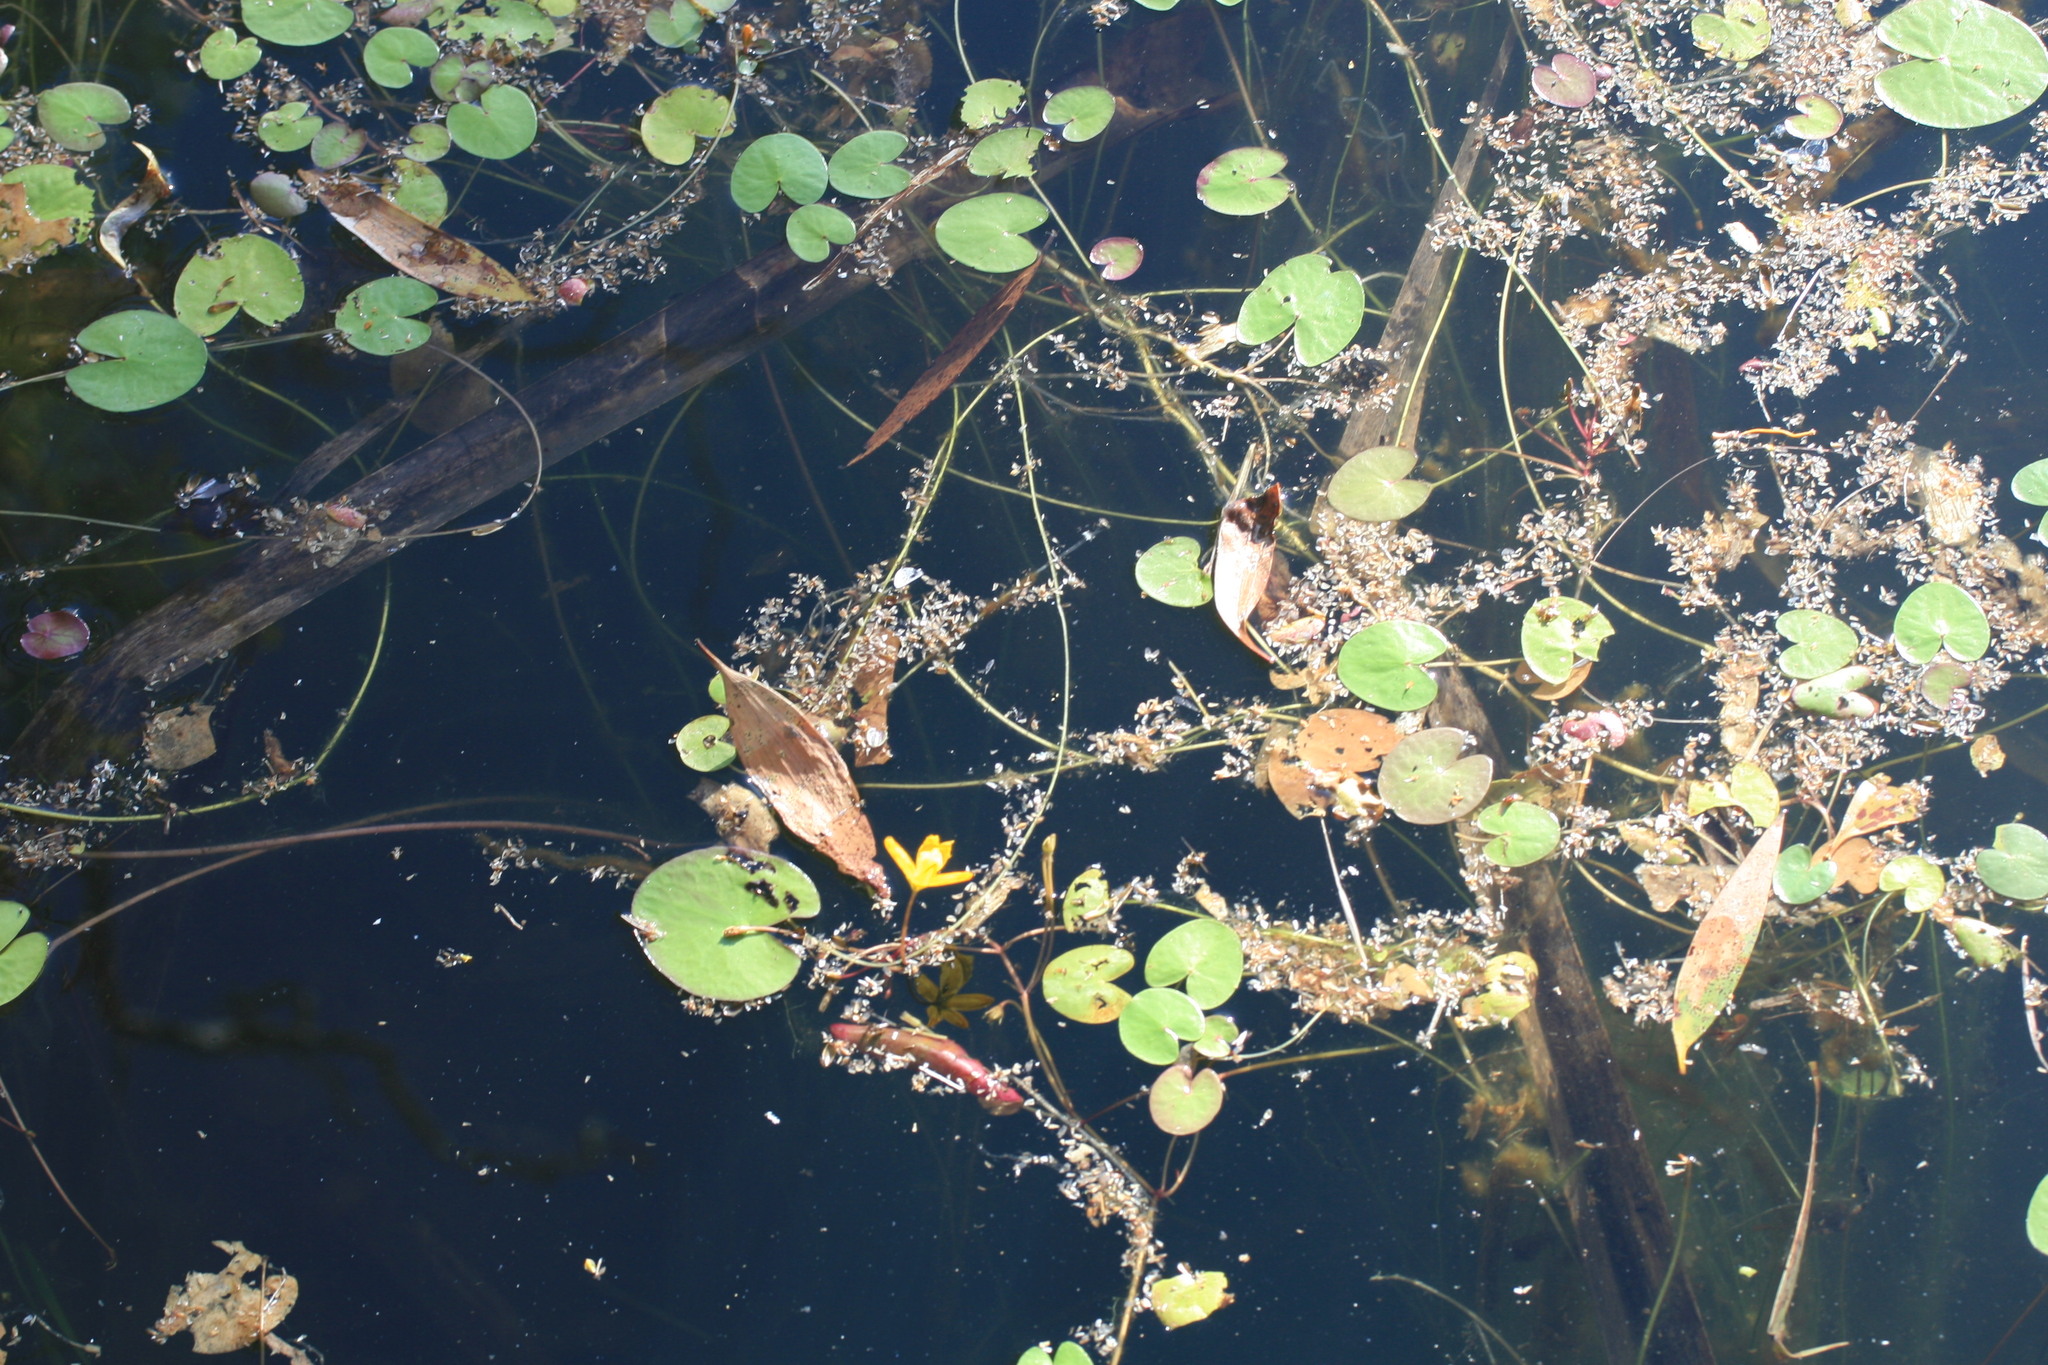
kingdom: Plantae
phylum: Tracheophyta
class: Magnoliopsida
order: Asterales
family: Menyanthaceae
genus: Nymphoides
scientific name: Nymphoides aurantiaca
